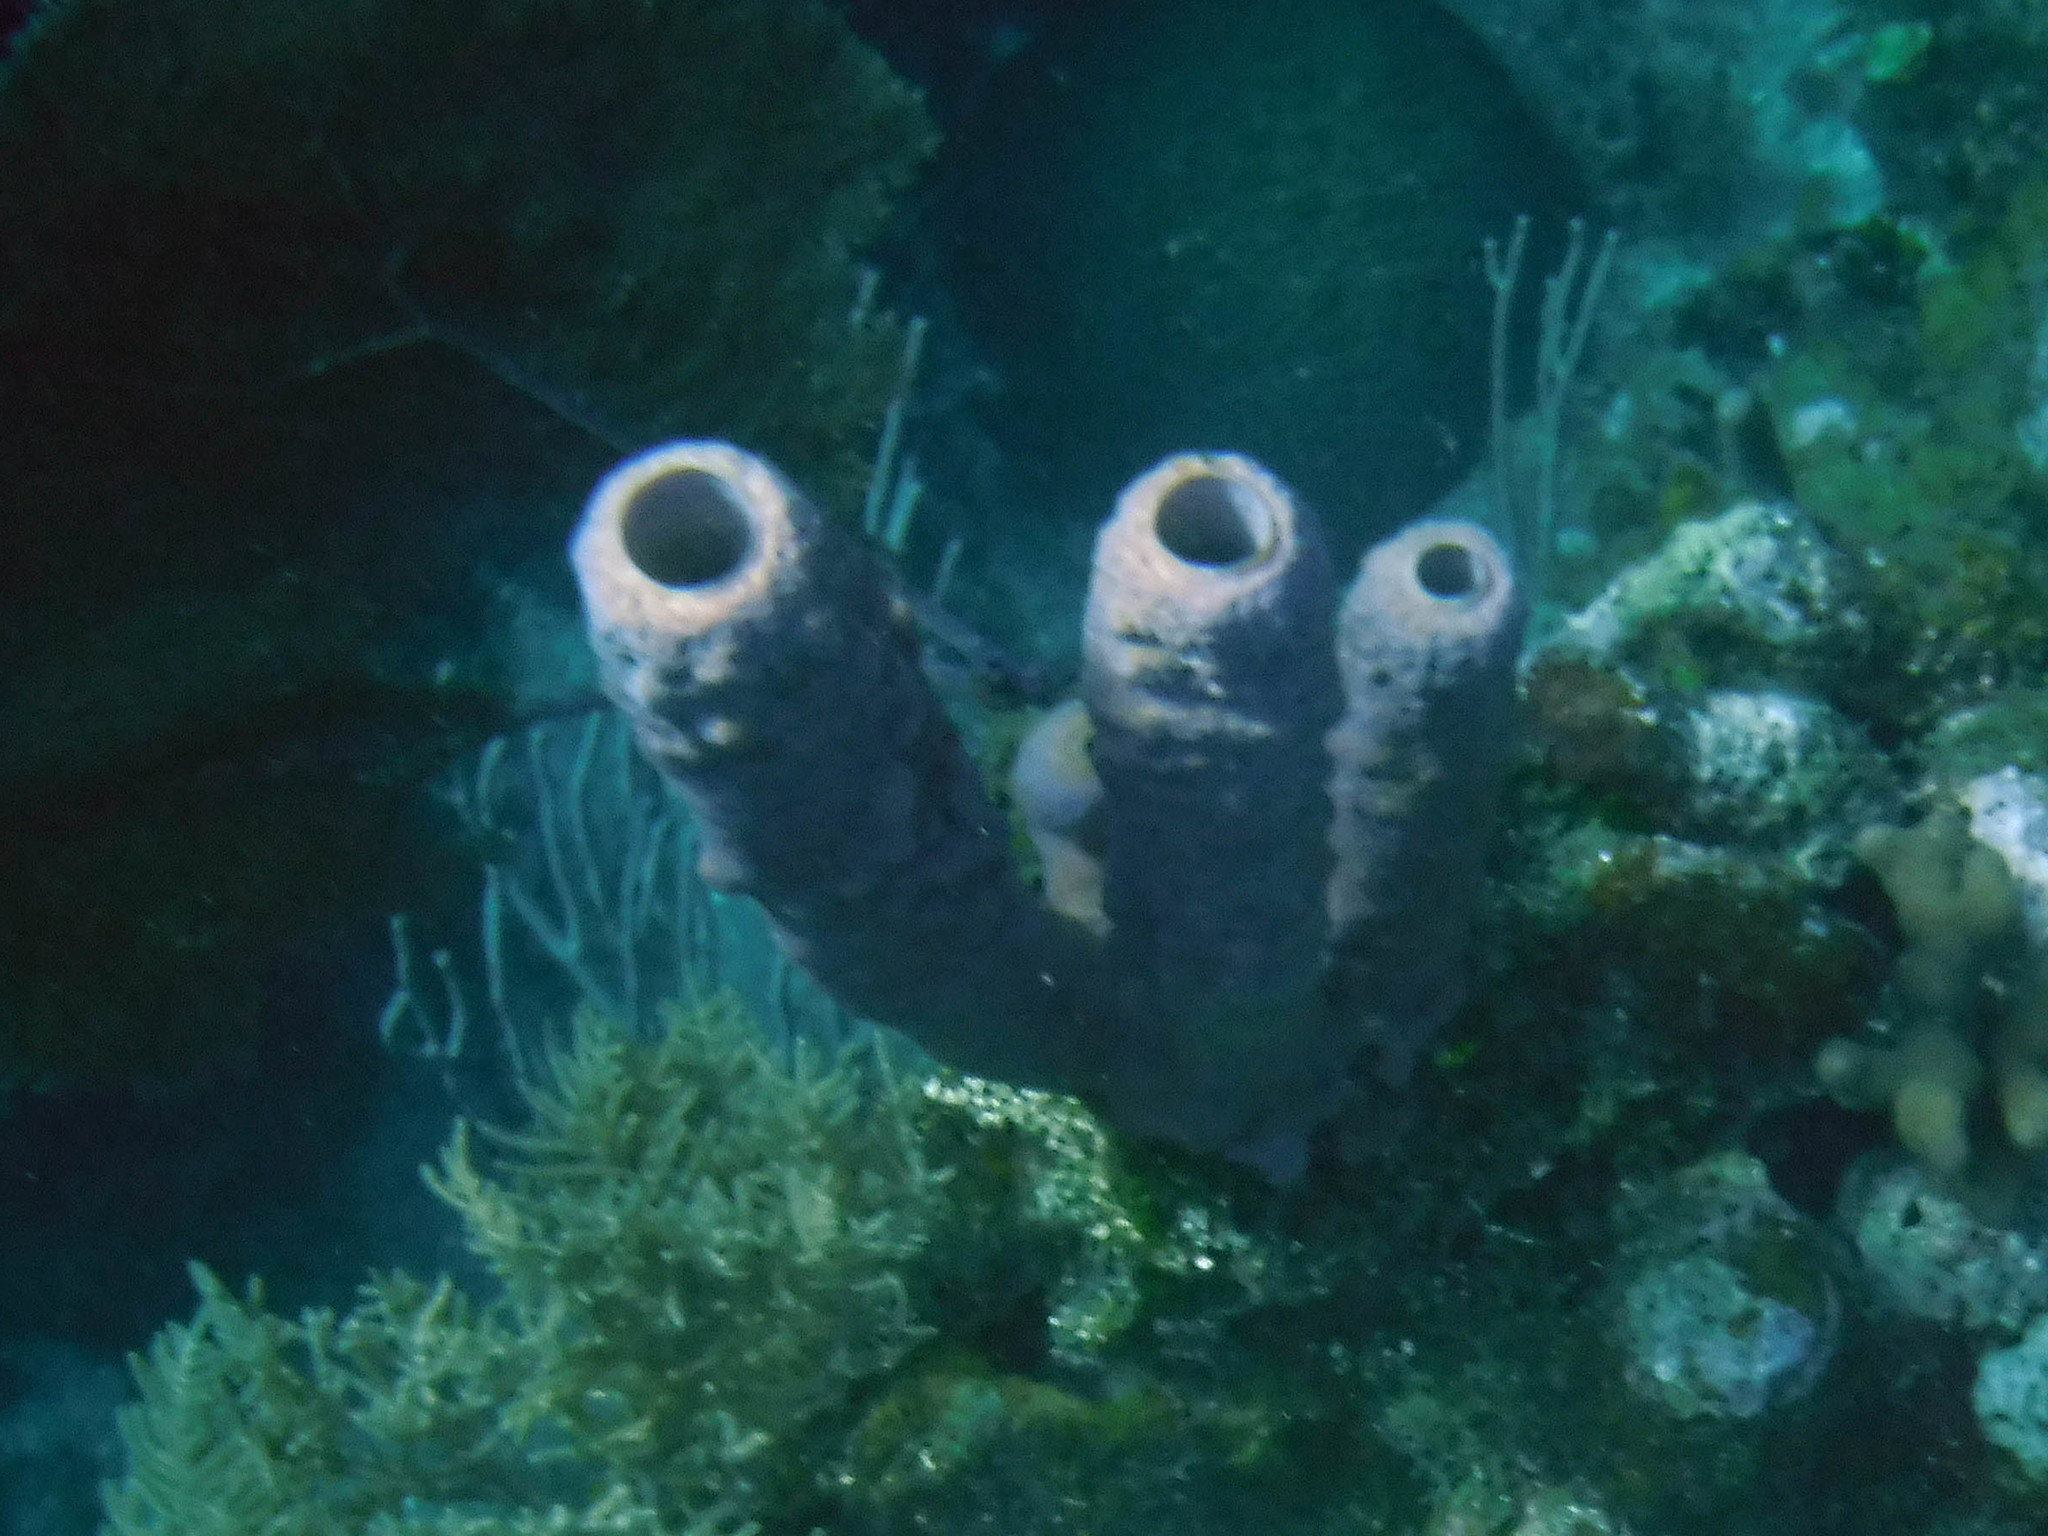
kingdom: Animalia
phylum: Porifera
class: Demospongiae
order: Verongiida
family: Aplysinidae
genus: Aplysina
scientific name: Aplysina archeri
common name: Stove-pipe sponge
